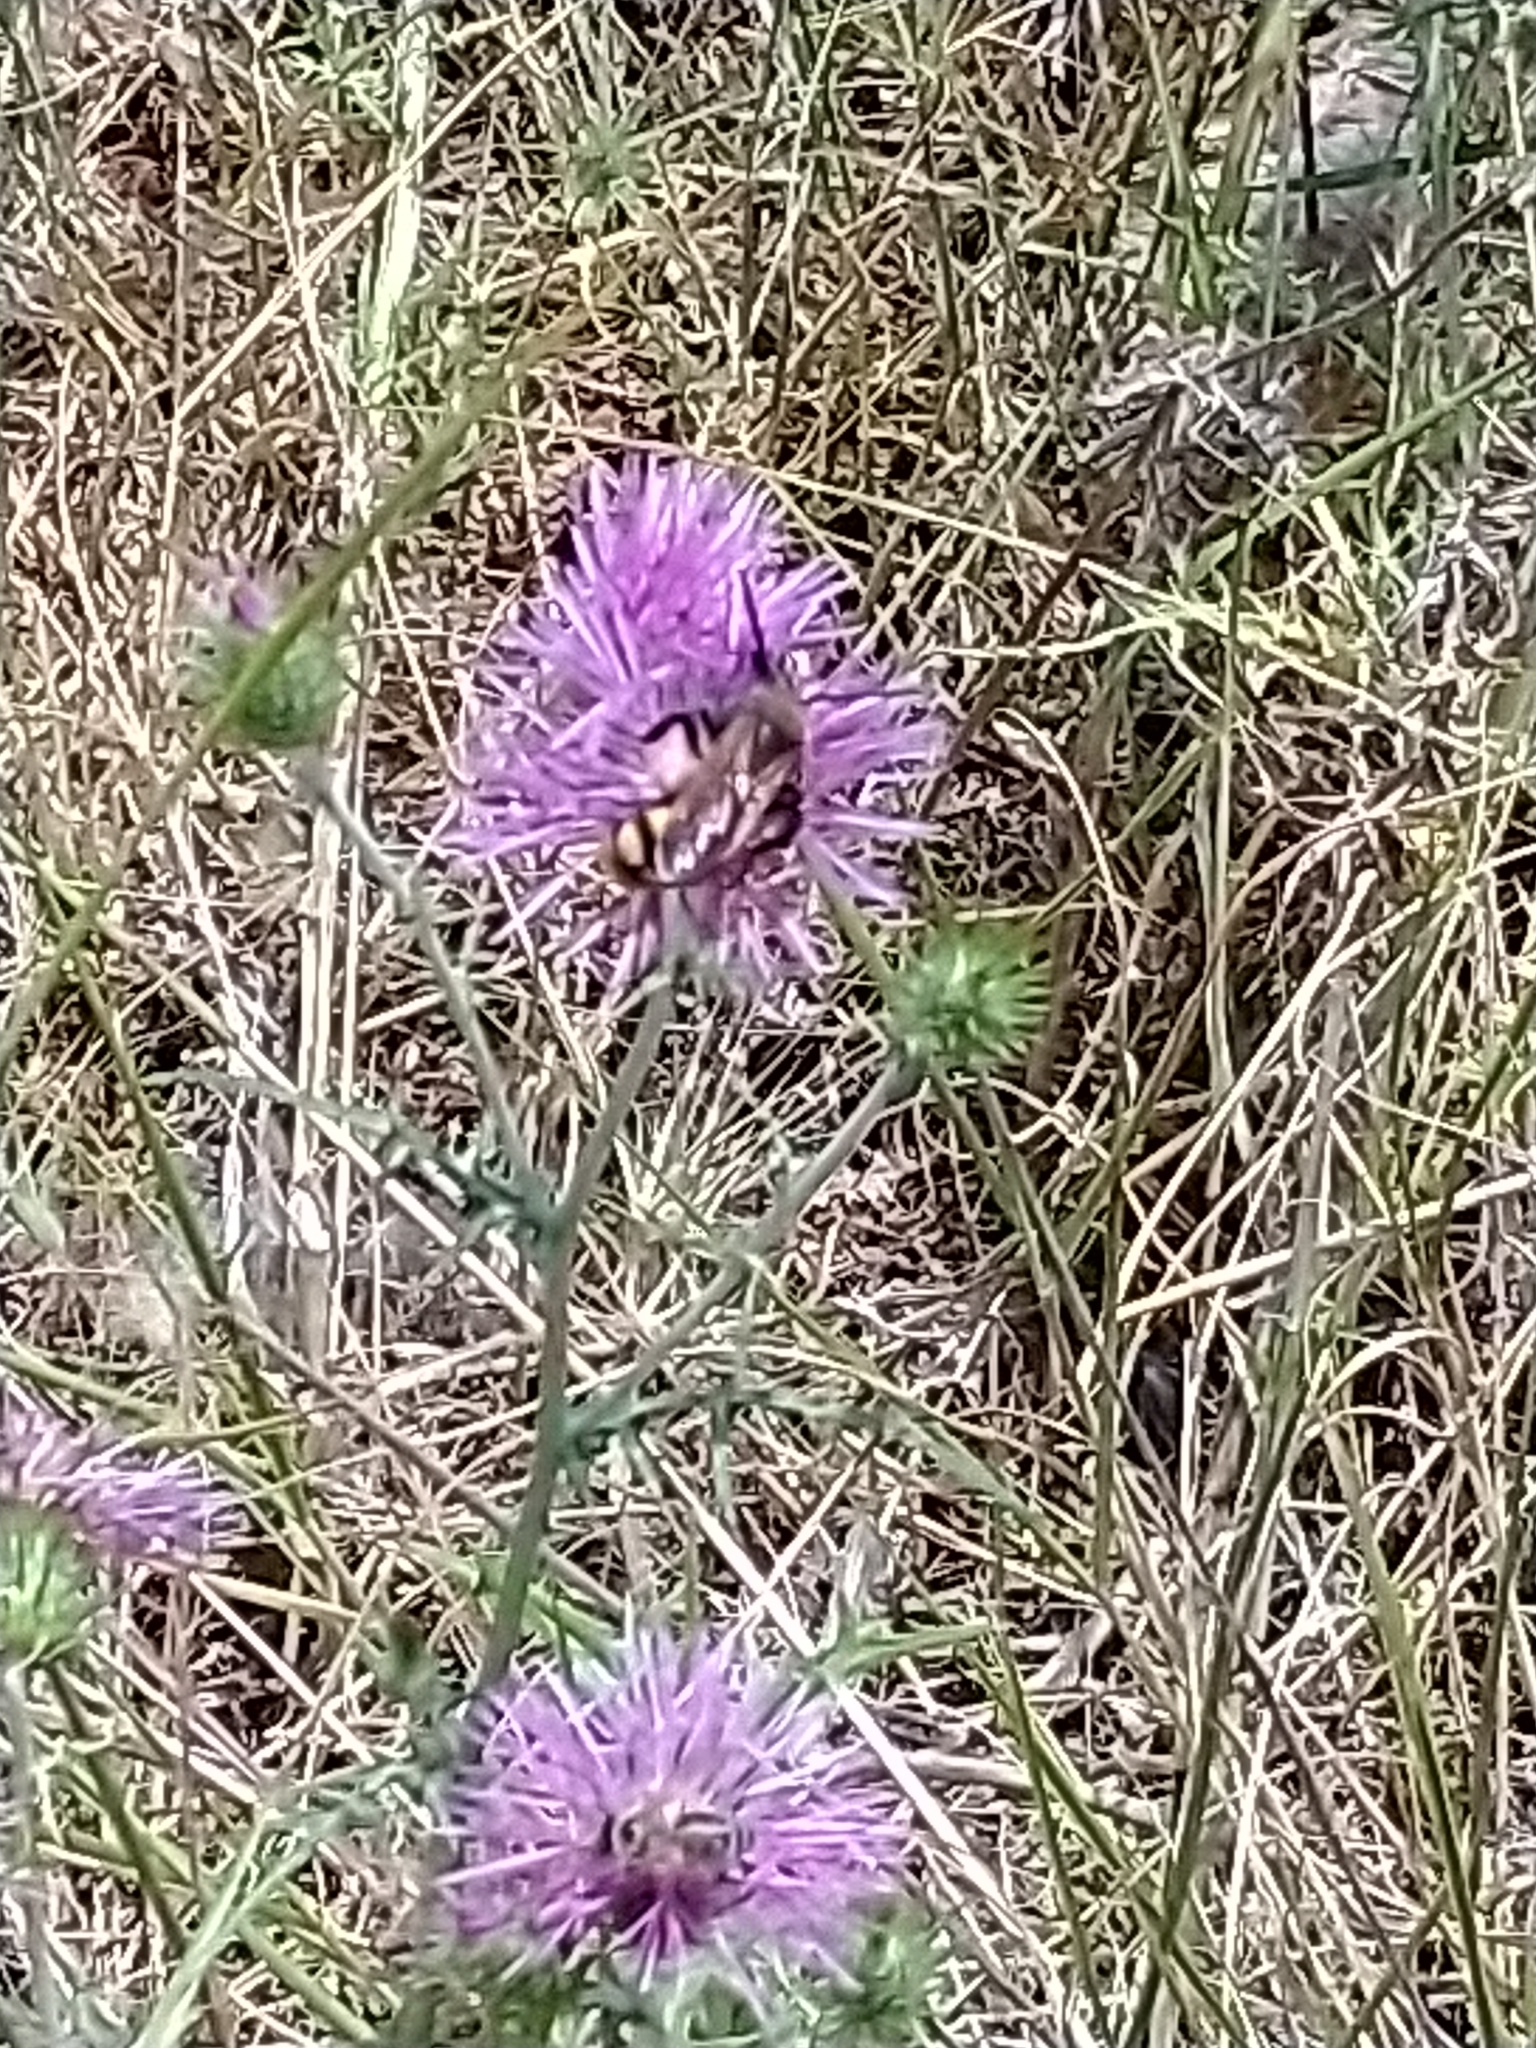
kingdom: Animalia
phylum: Arthropoda
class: Insecta
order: Hymenoptera
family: Scoliidae
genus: Megascolia
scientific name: Megascolia maculata
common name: Mammoth wasp
